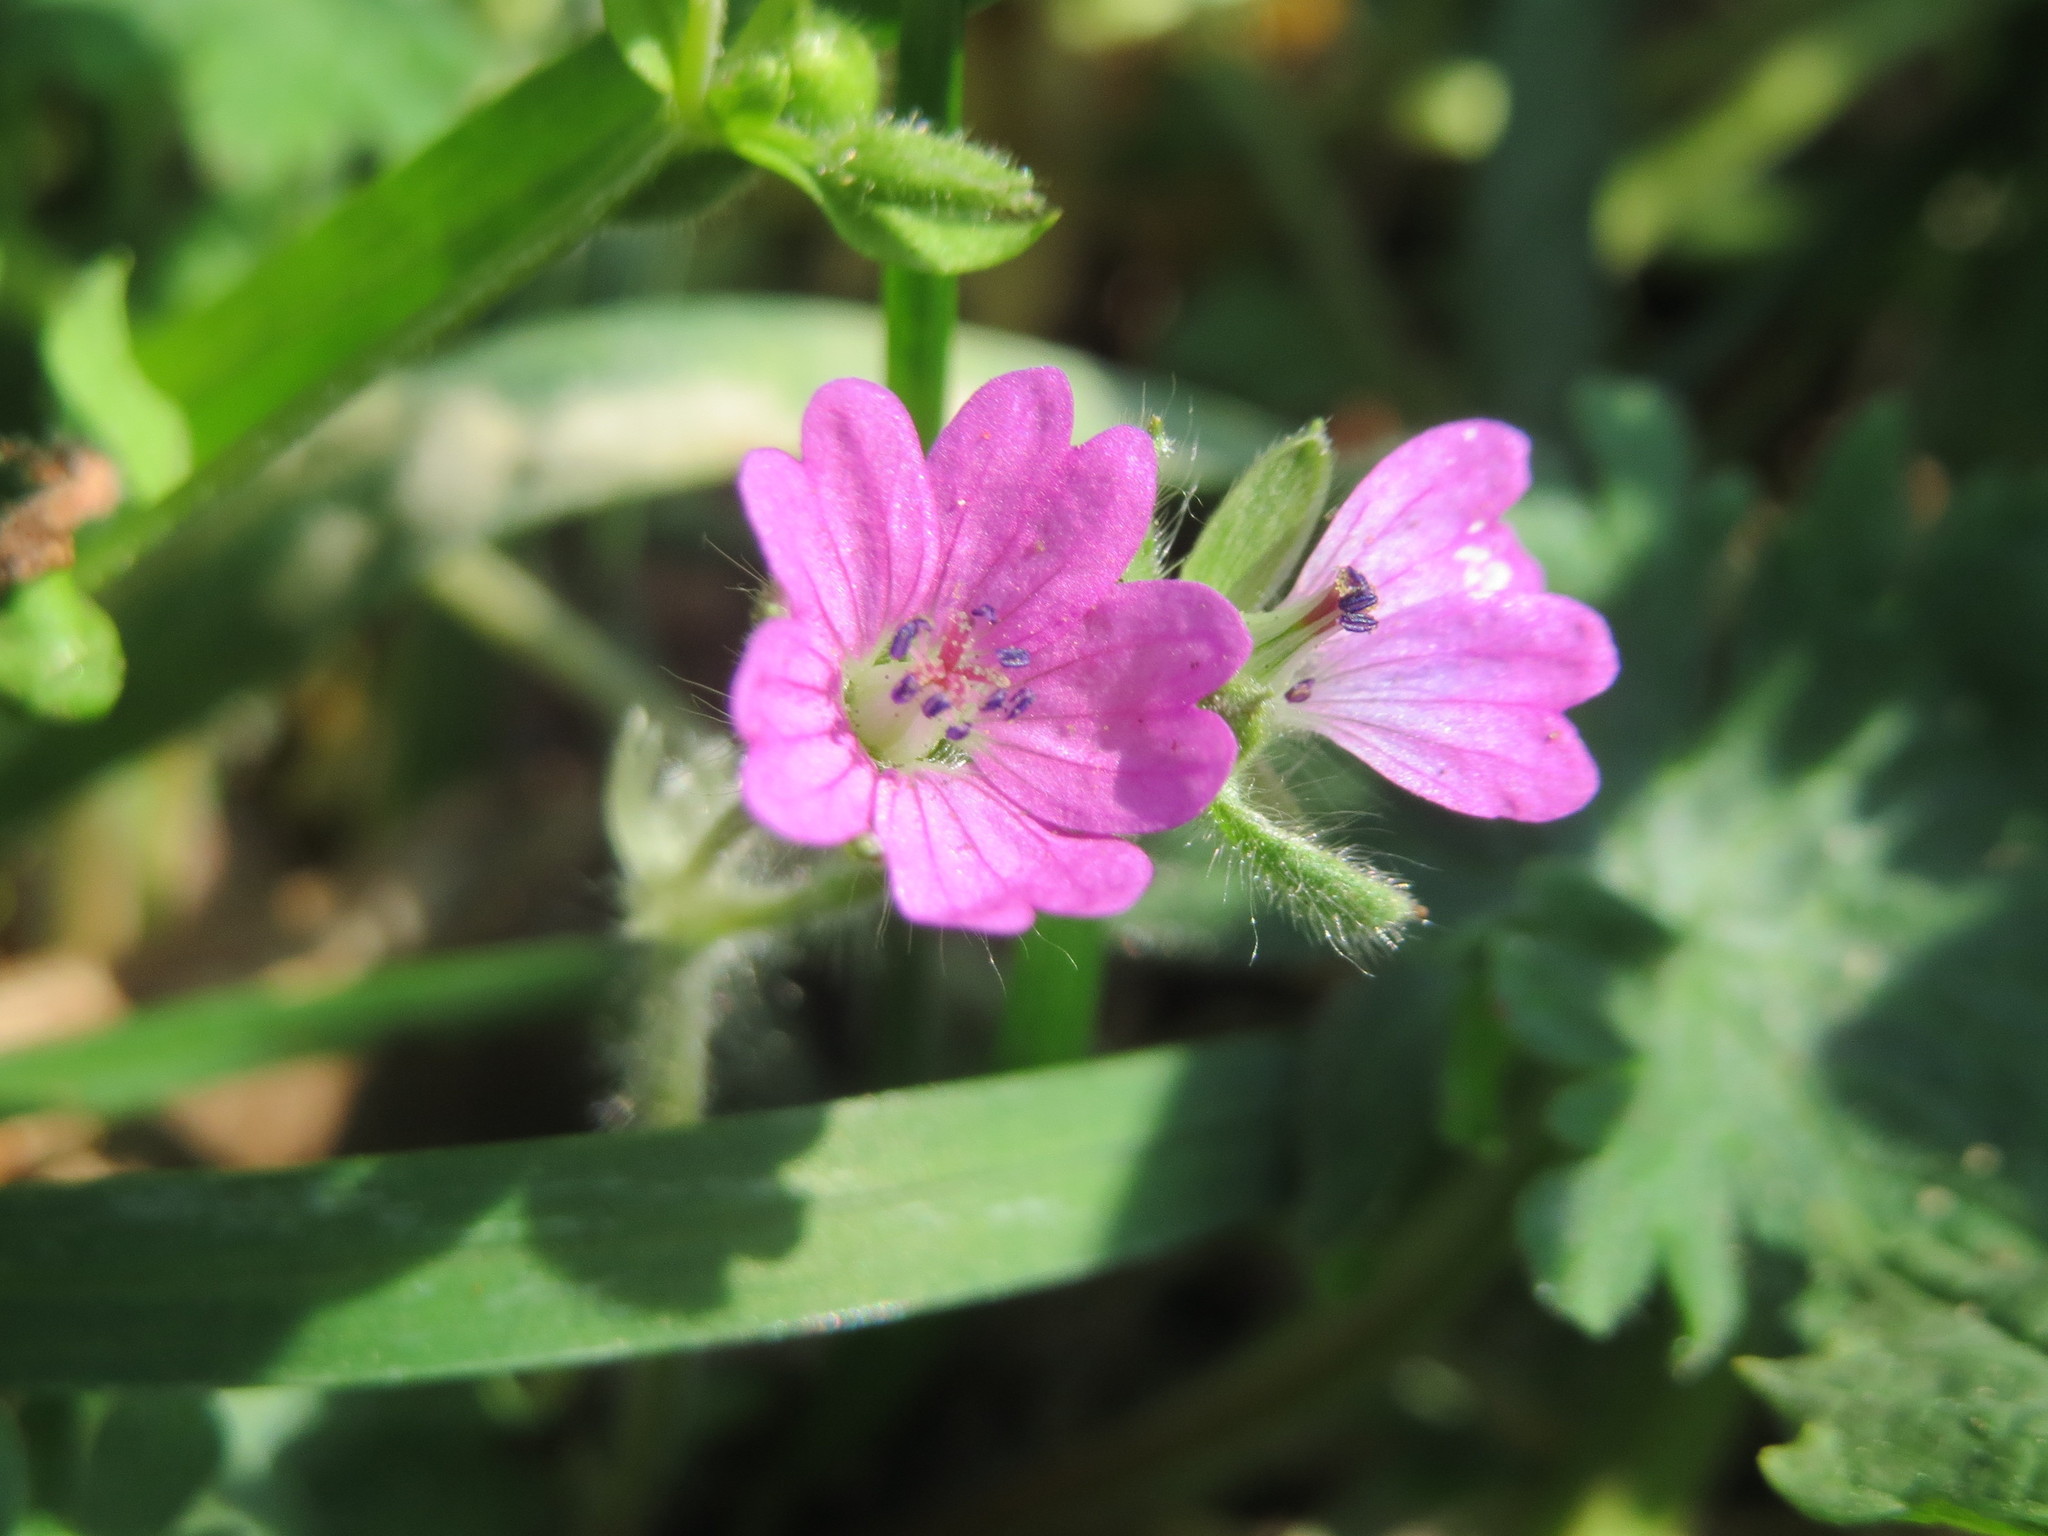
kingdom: Plantae
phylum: Tracheophyta
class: Magnoliopsida
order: Geraniales
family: Geraniaceae
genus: Geranium
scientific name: Geranium molle
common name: Dove's-foot crane's-bill
